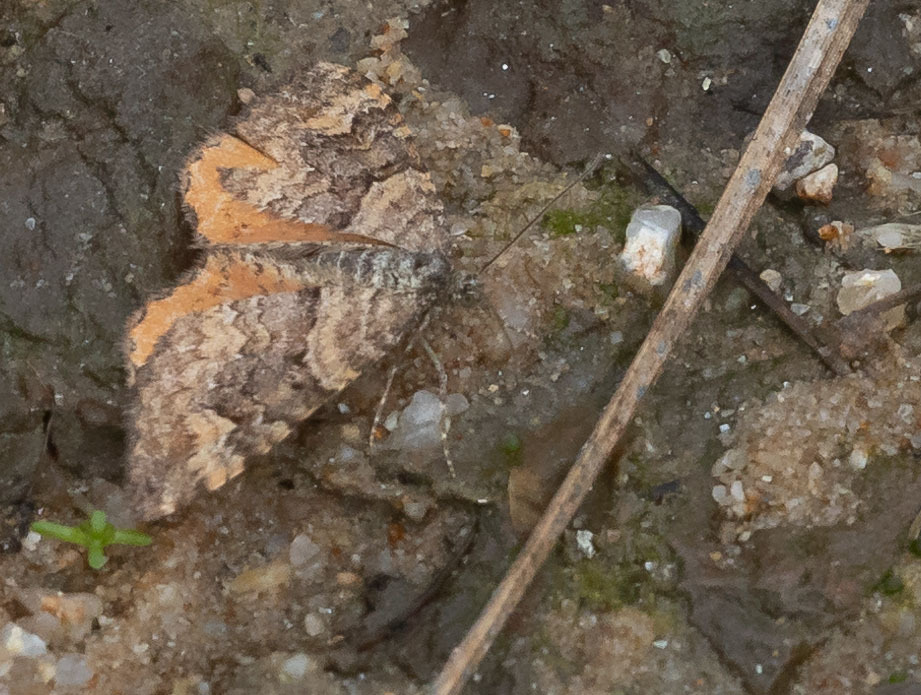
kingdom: Animalia
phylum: Arthropoda
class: Insecta
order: Lepidoptera
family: Geometridae
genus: Epirrhoe
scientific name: Epirrhoe plebeculata
